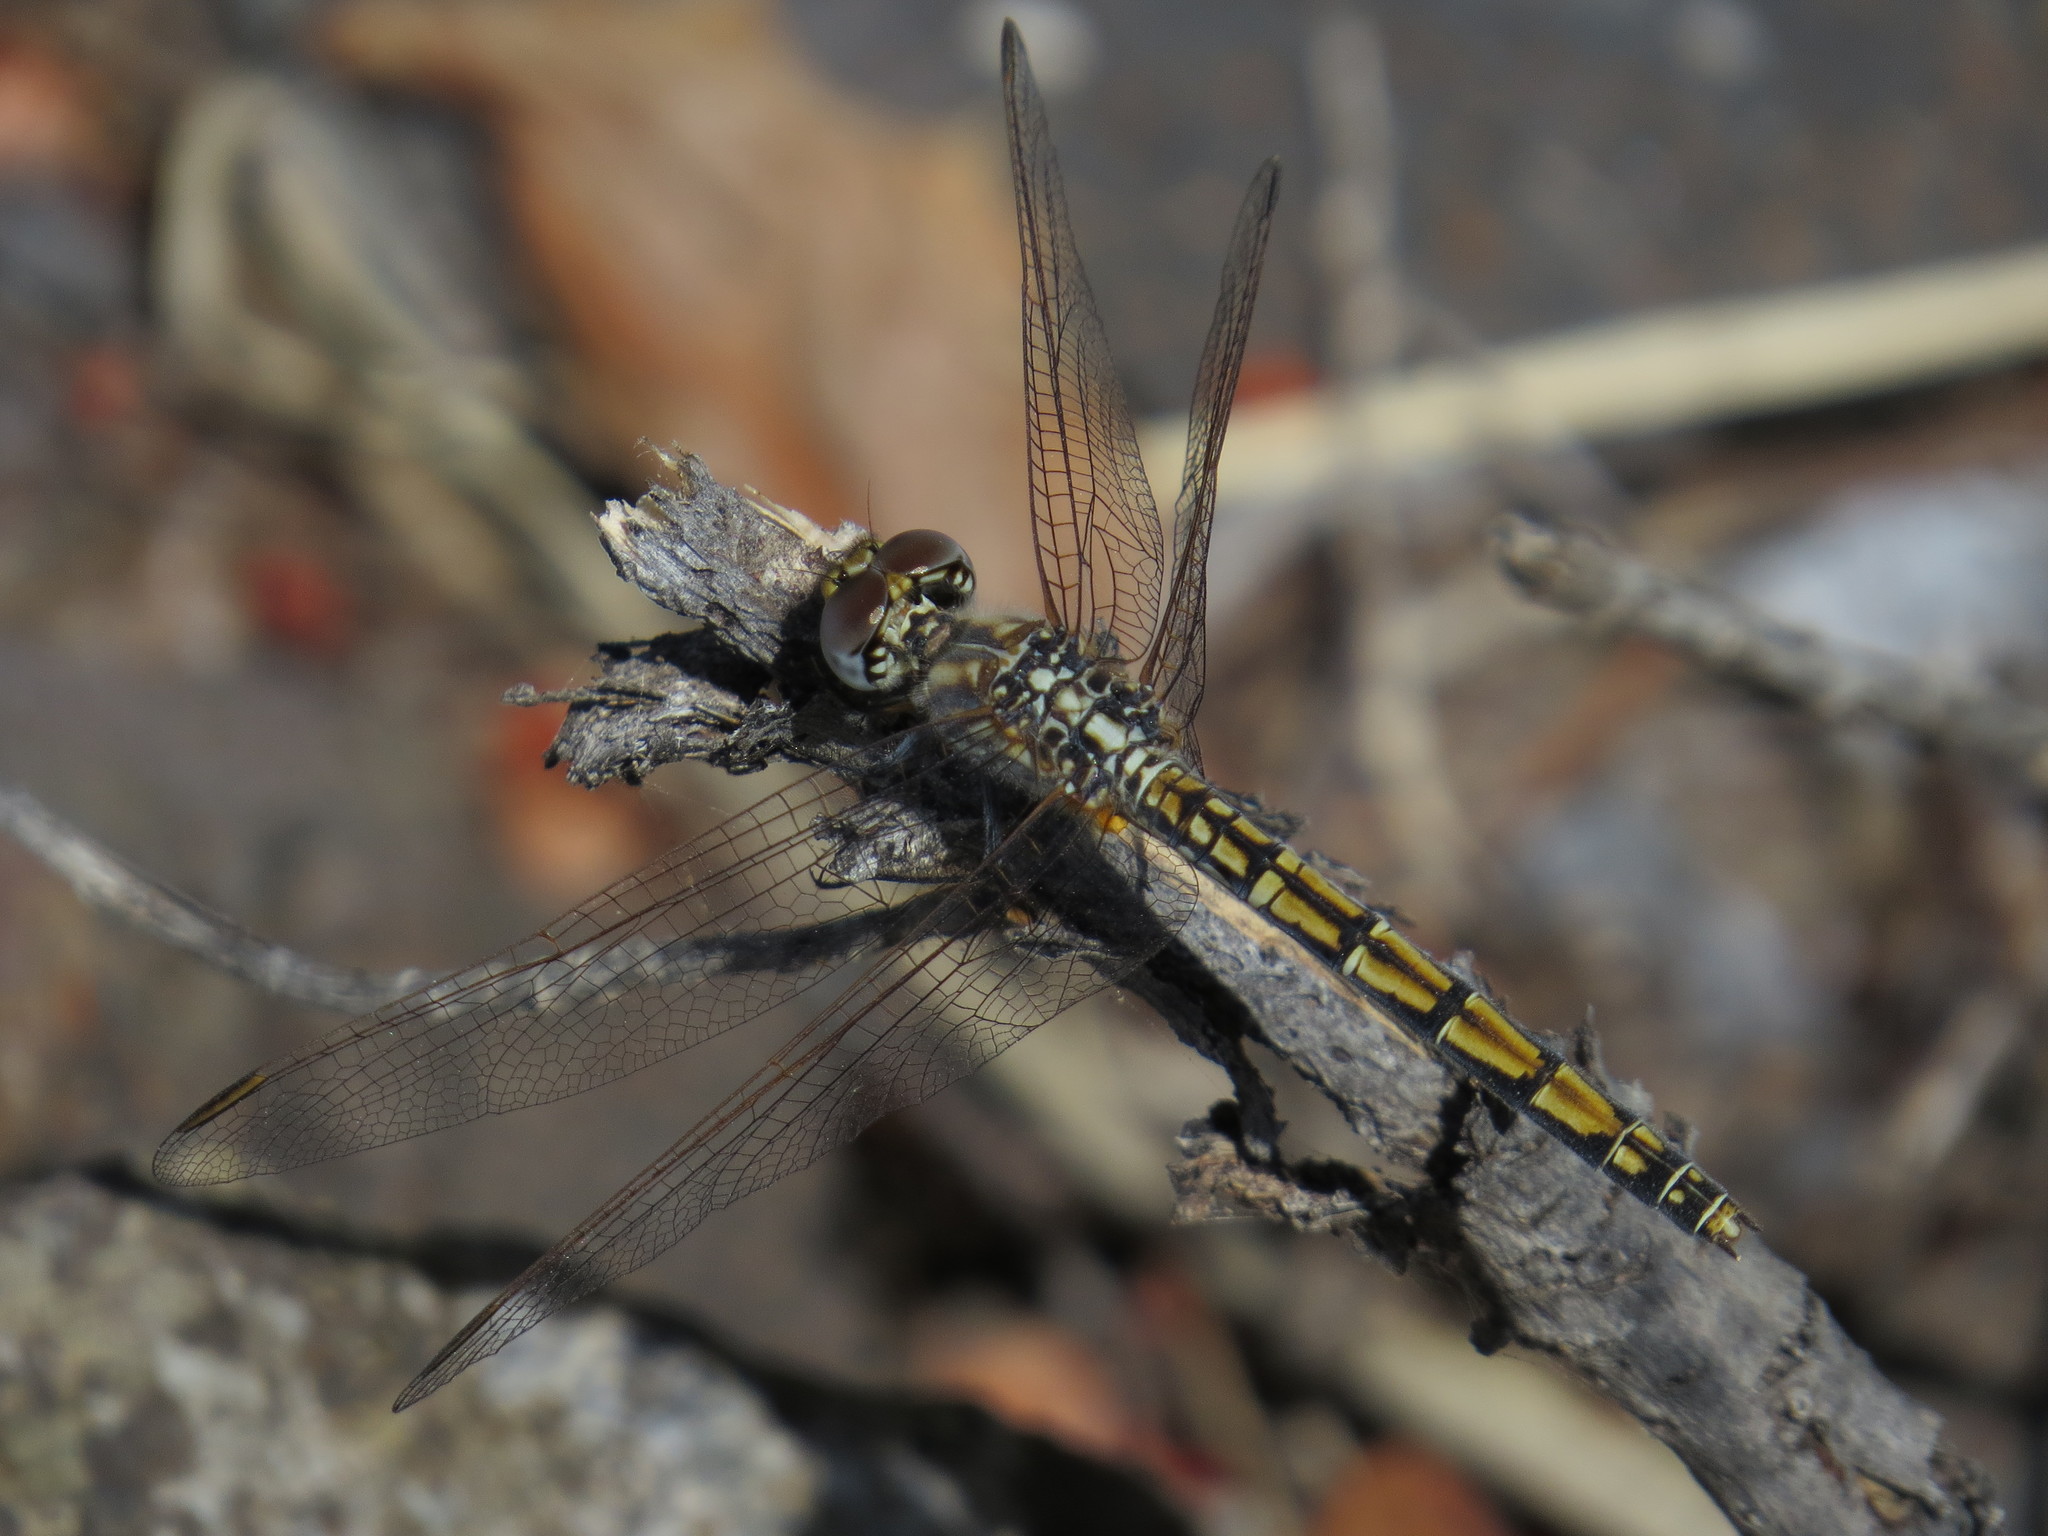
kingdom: Animalia
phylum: Arthropoda
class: Insecta
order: Odonata
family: Libellulidae
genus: Trithemis
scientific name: Trithemis arteriosa
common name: Red-veined dropwing
